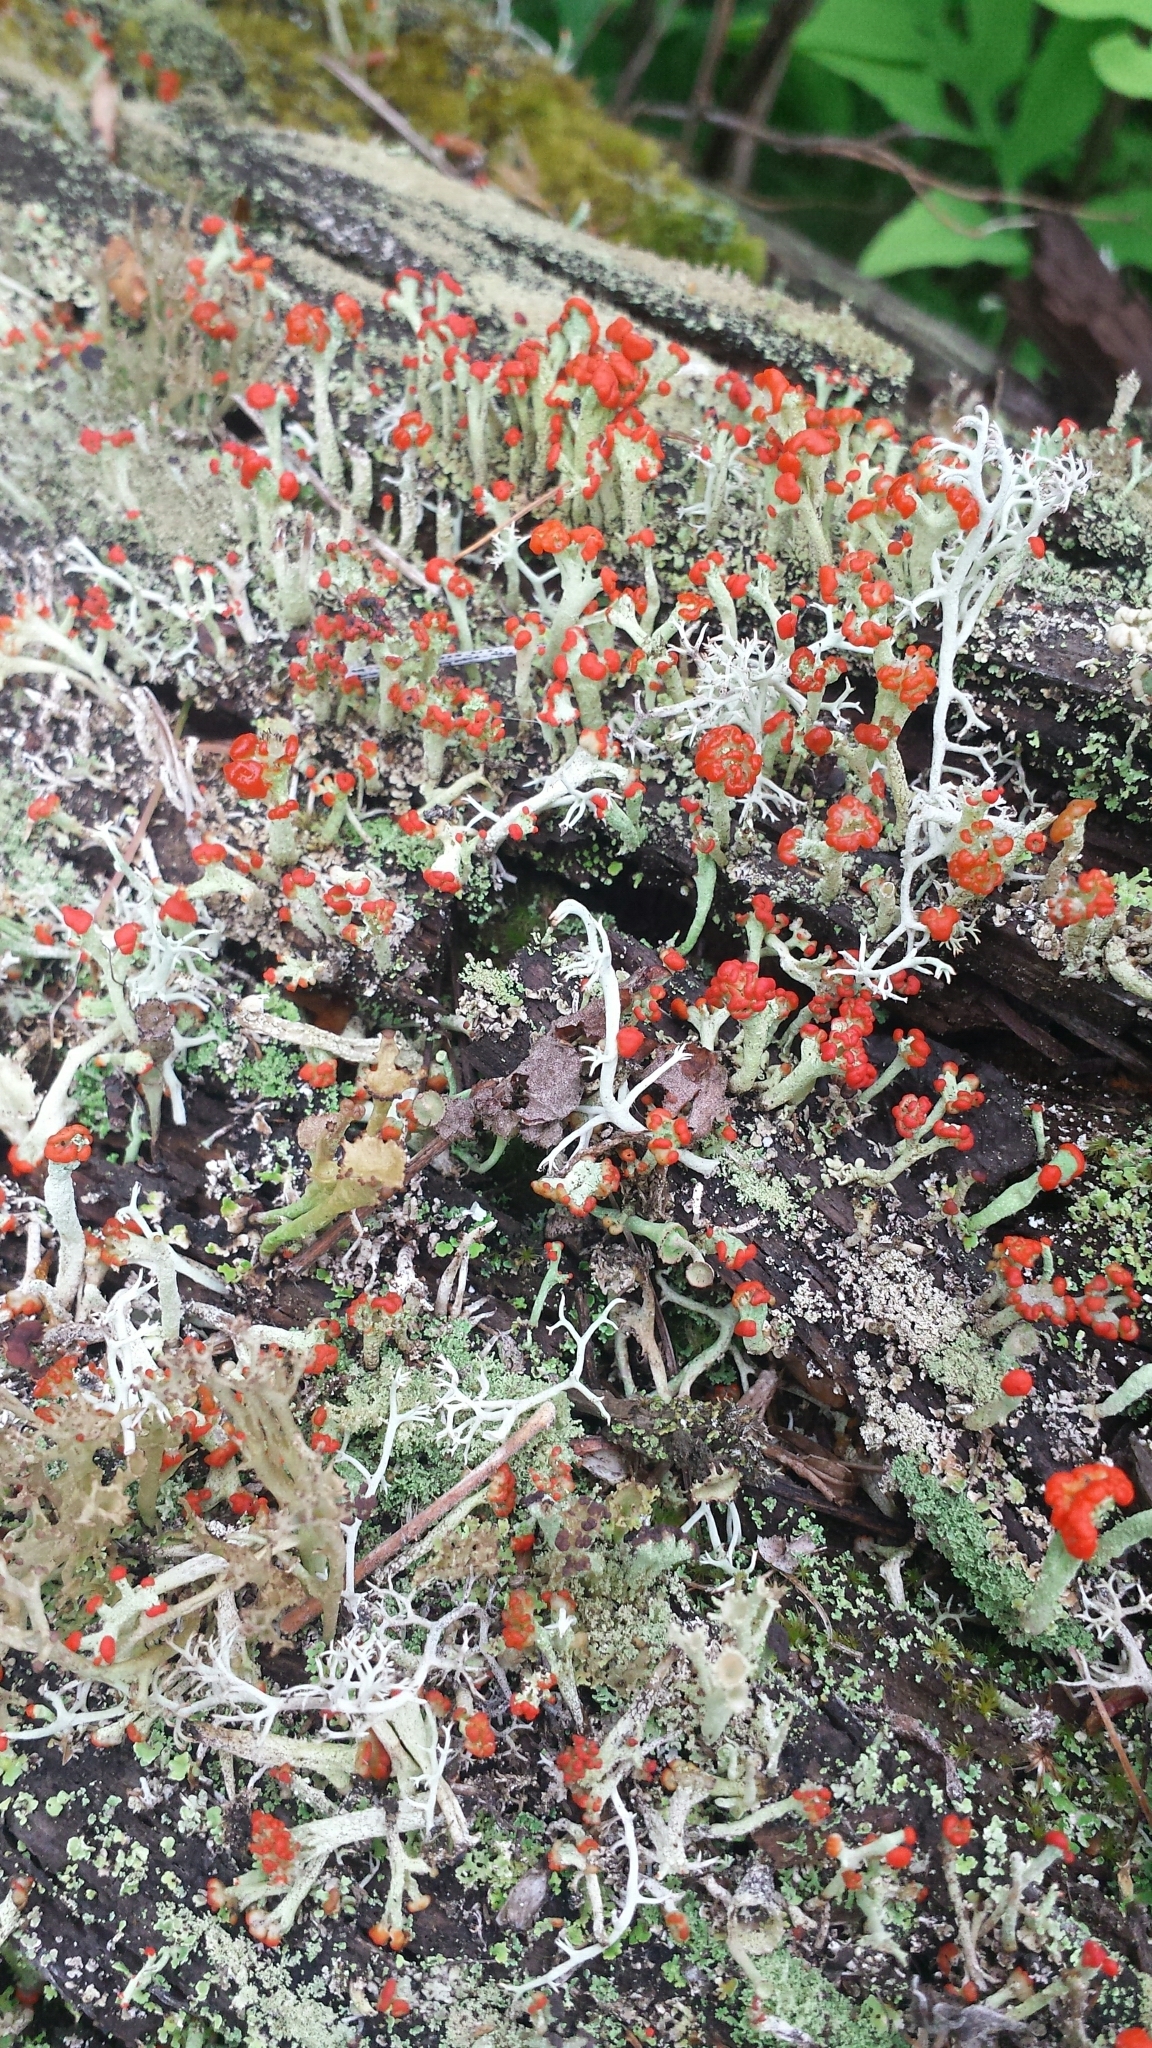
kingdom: Fungi
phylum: Ascomycota
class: Lecanoromycetes
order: Lecanorales
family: Cladoniaceae
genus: Cladonia
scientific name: Cladonia cristatella
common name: British soldier lichen
